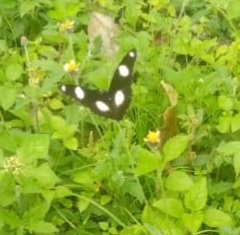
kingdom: Animalia
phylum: Arthropoda
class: Insecta
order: Lepidoptera
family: Nymphalidae
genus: Hypolimnas
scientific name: Hypolimnas misippus
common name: False plain tiger
